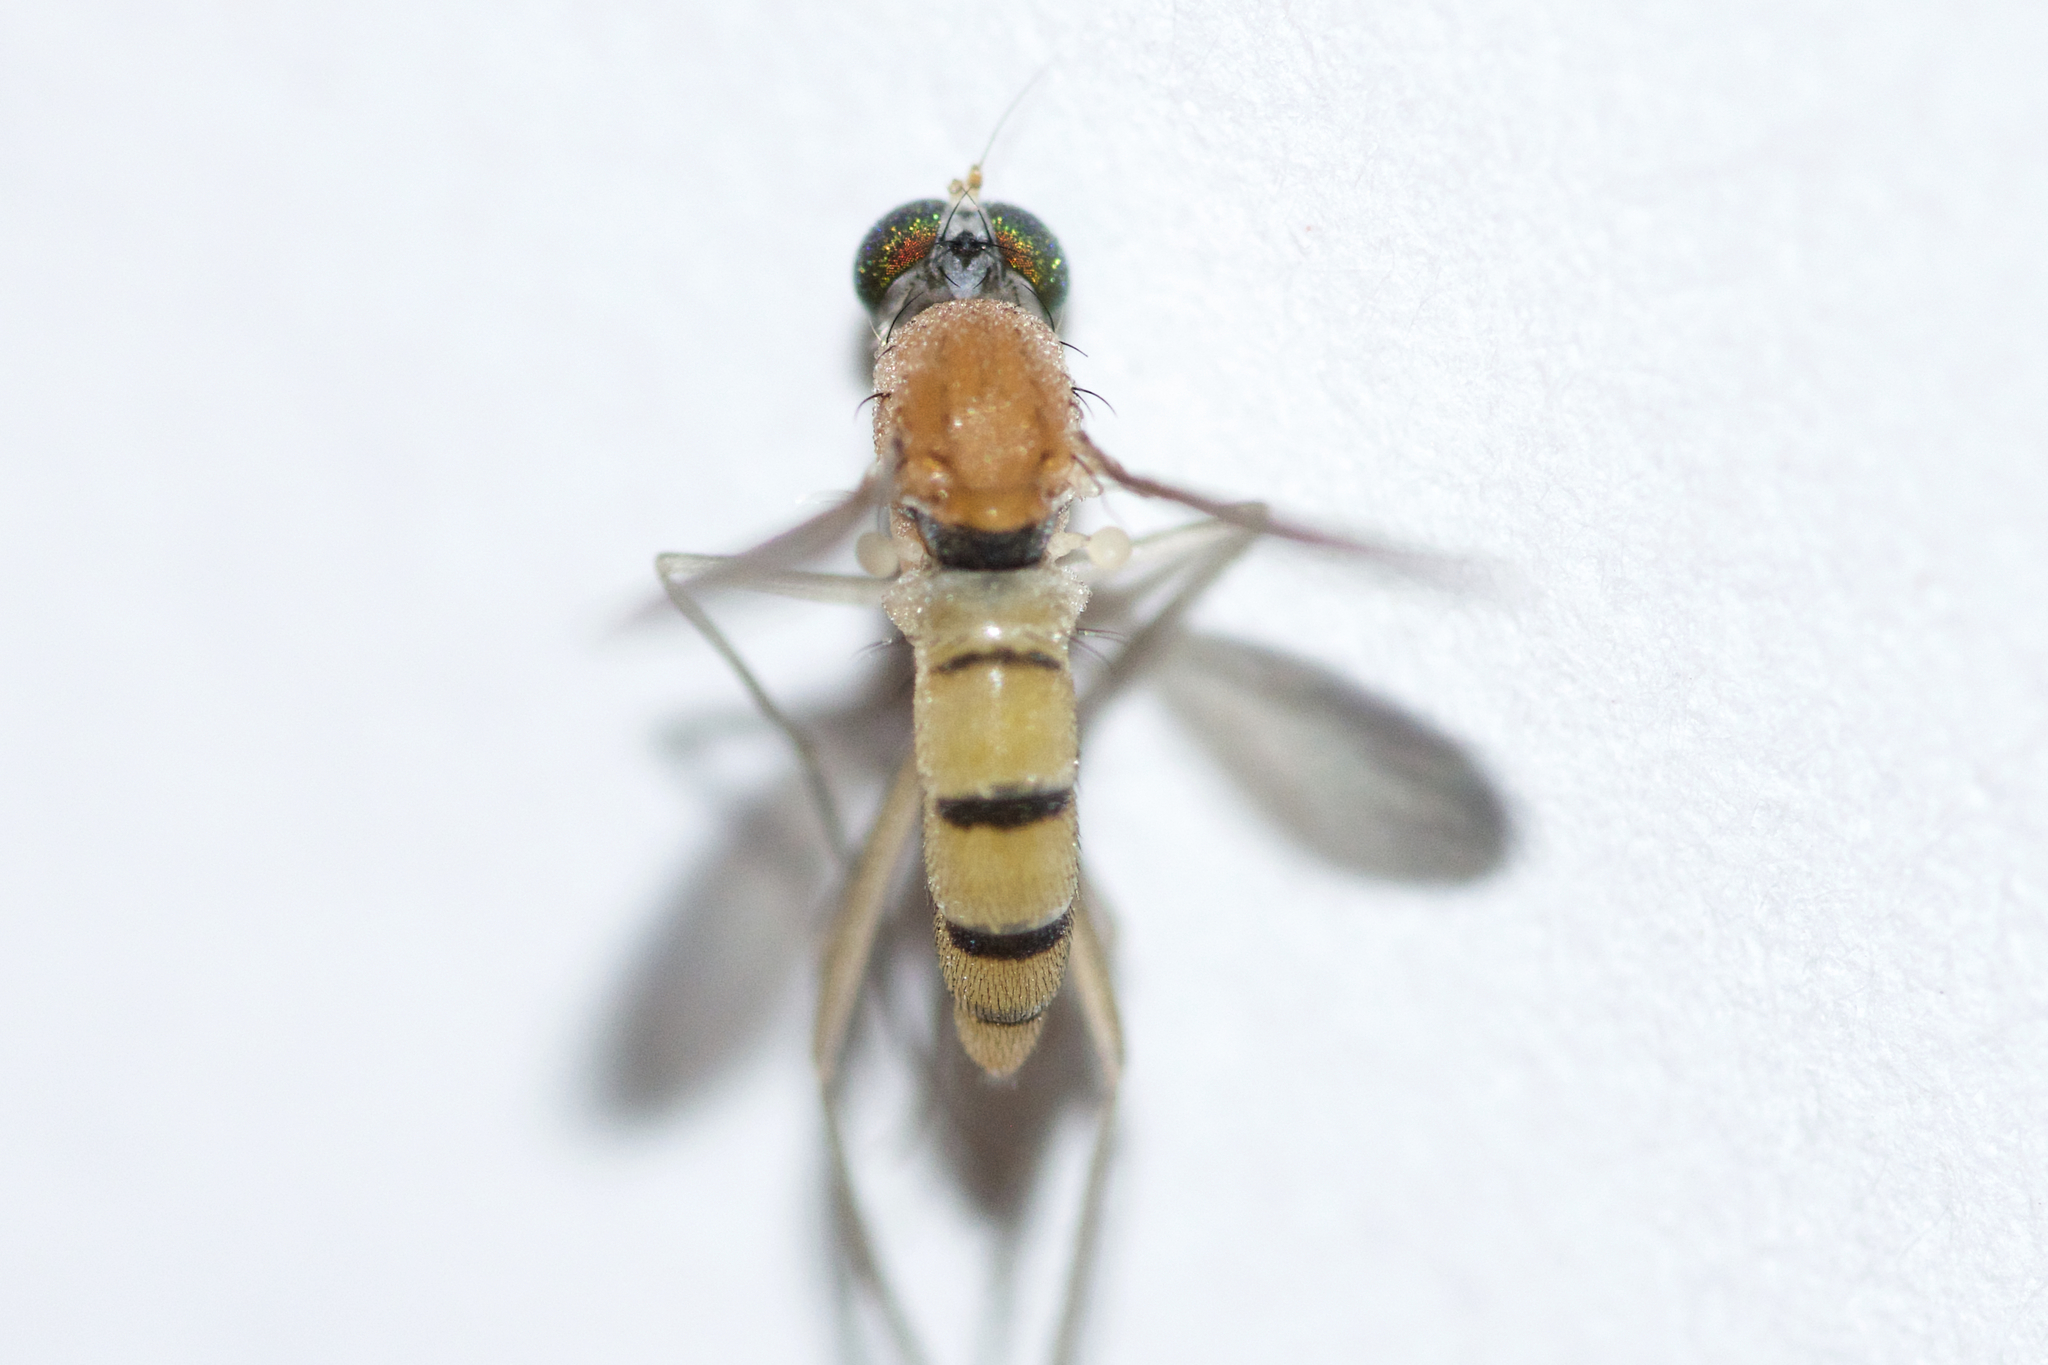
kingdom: Animalia
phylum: Arthropoda
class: Insecta
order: Diptera
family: Dolichopodidae
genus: Neurigona
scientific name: Neurigona disjuncta
